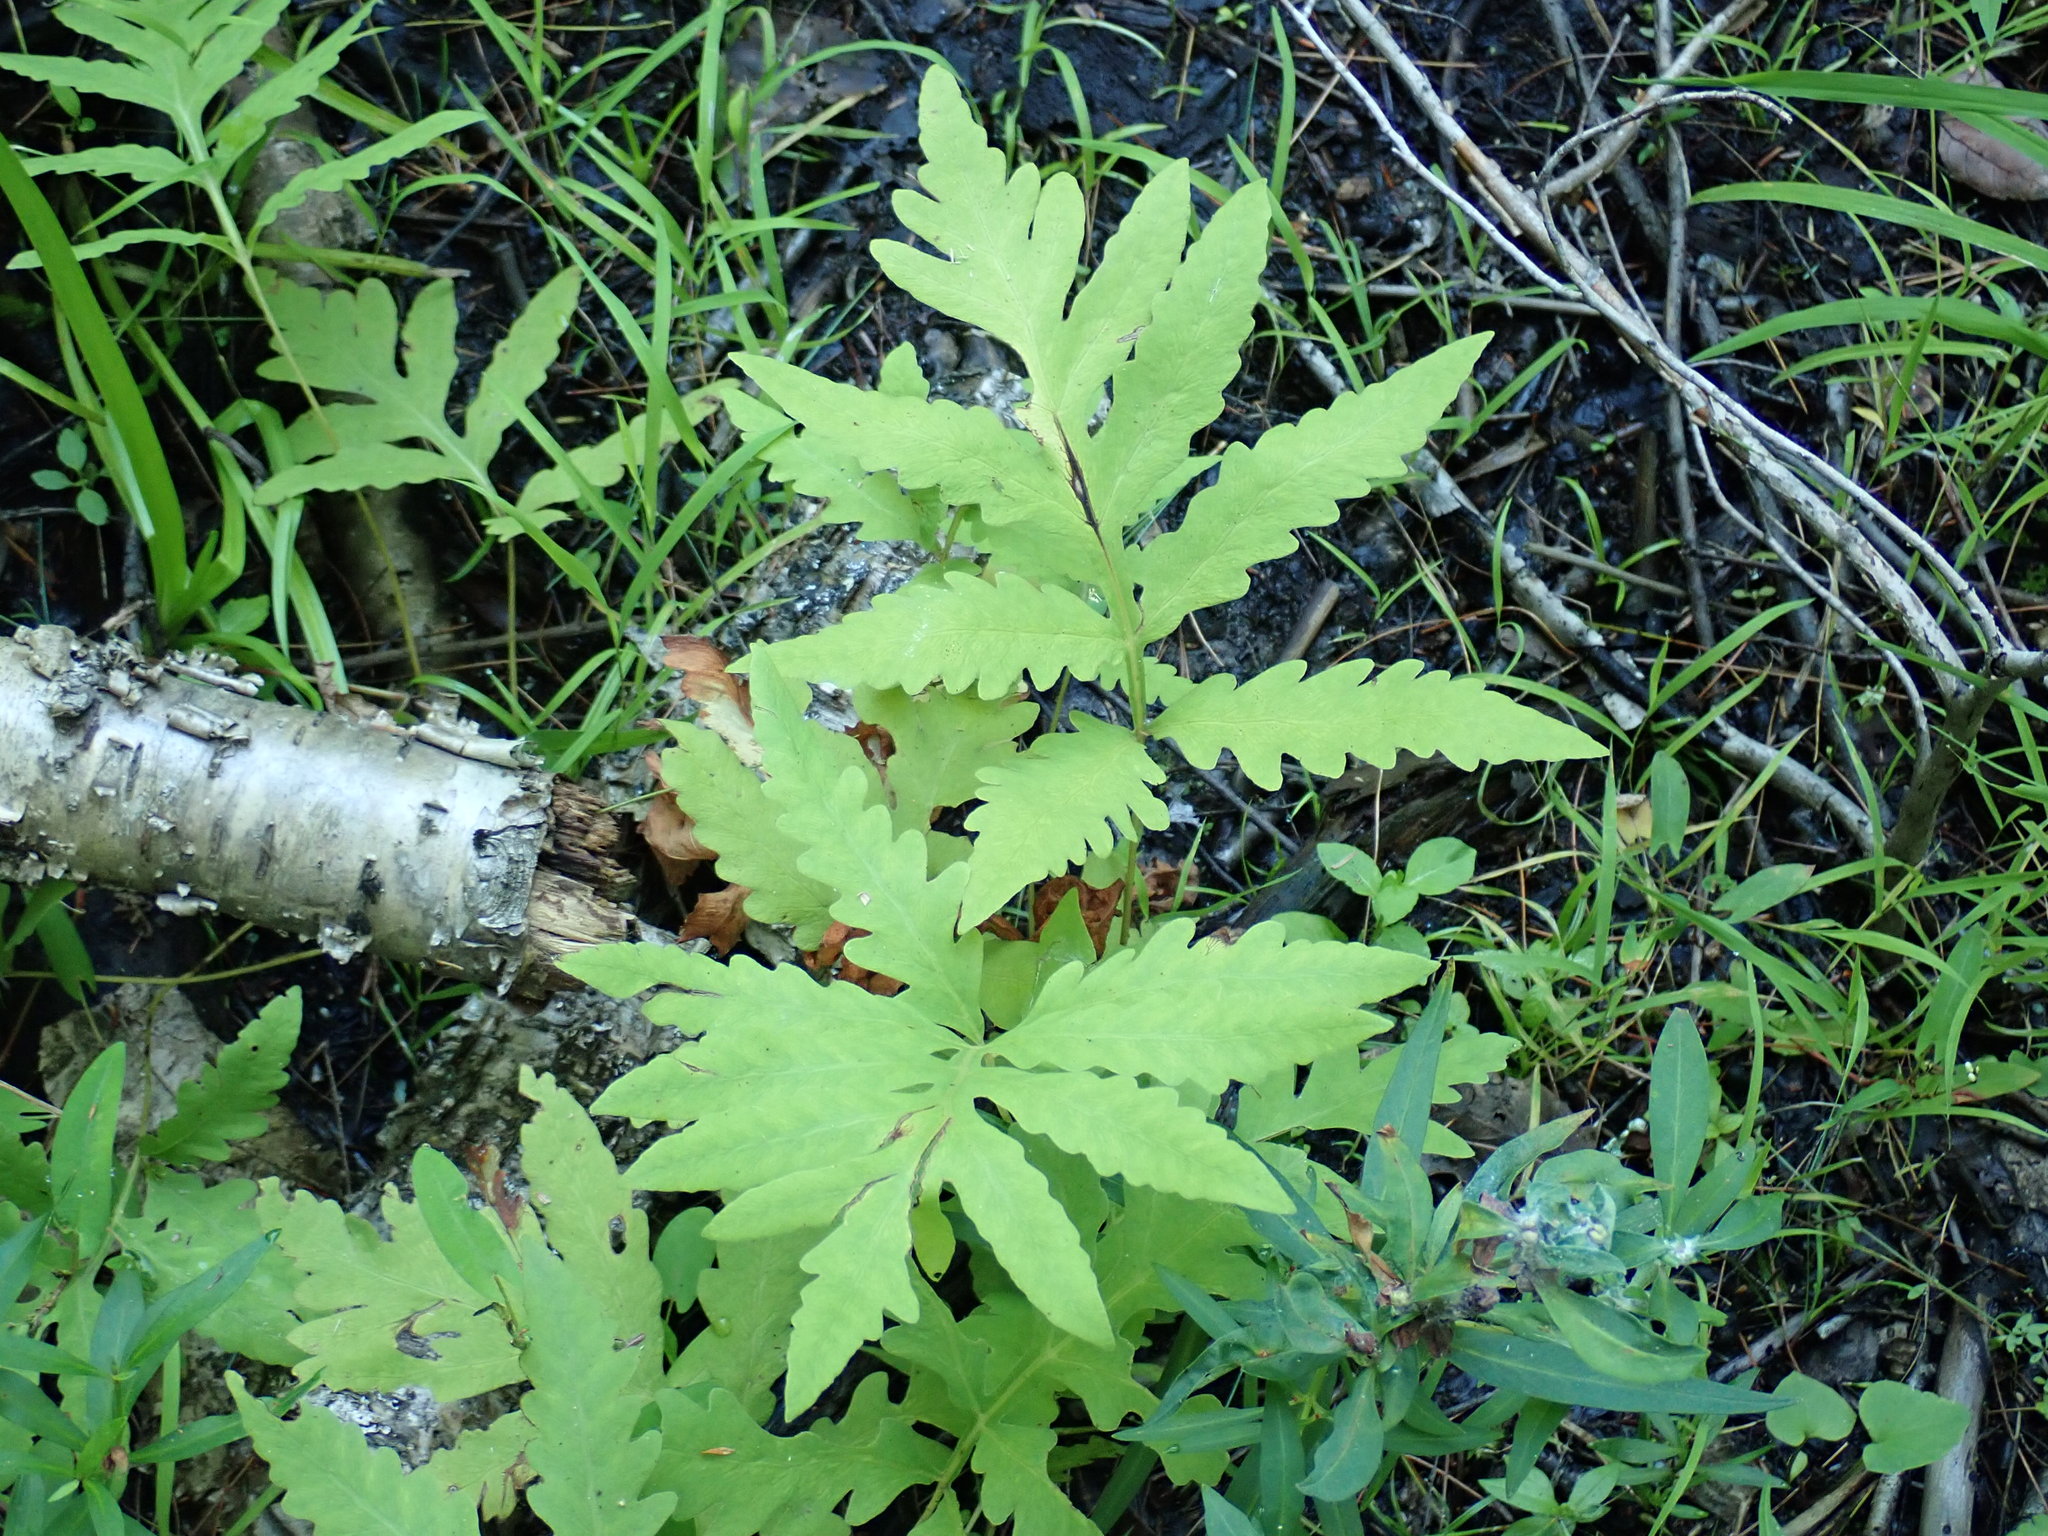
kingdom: Plantae
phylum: Tracheophyta
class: Polypodiopsida
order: Polypodiales
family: Onocleaceae
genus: Onoclea
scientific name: Onoclea sensibilis
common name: Sensitive fern
